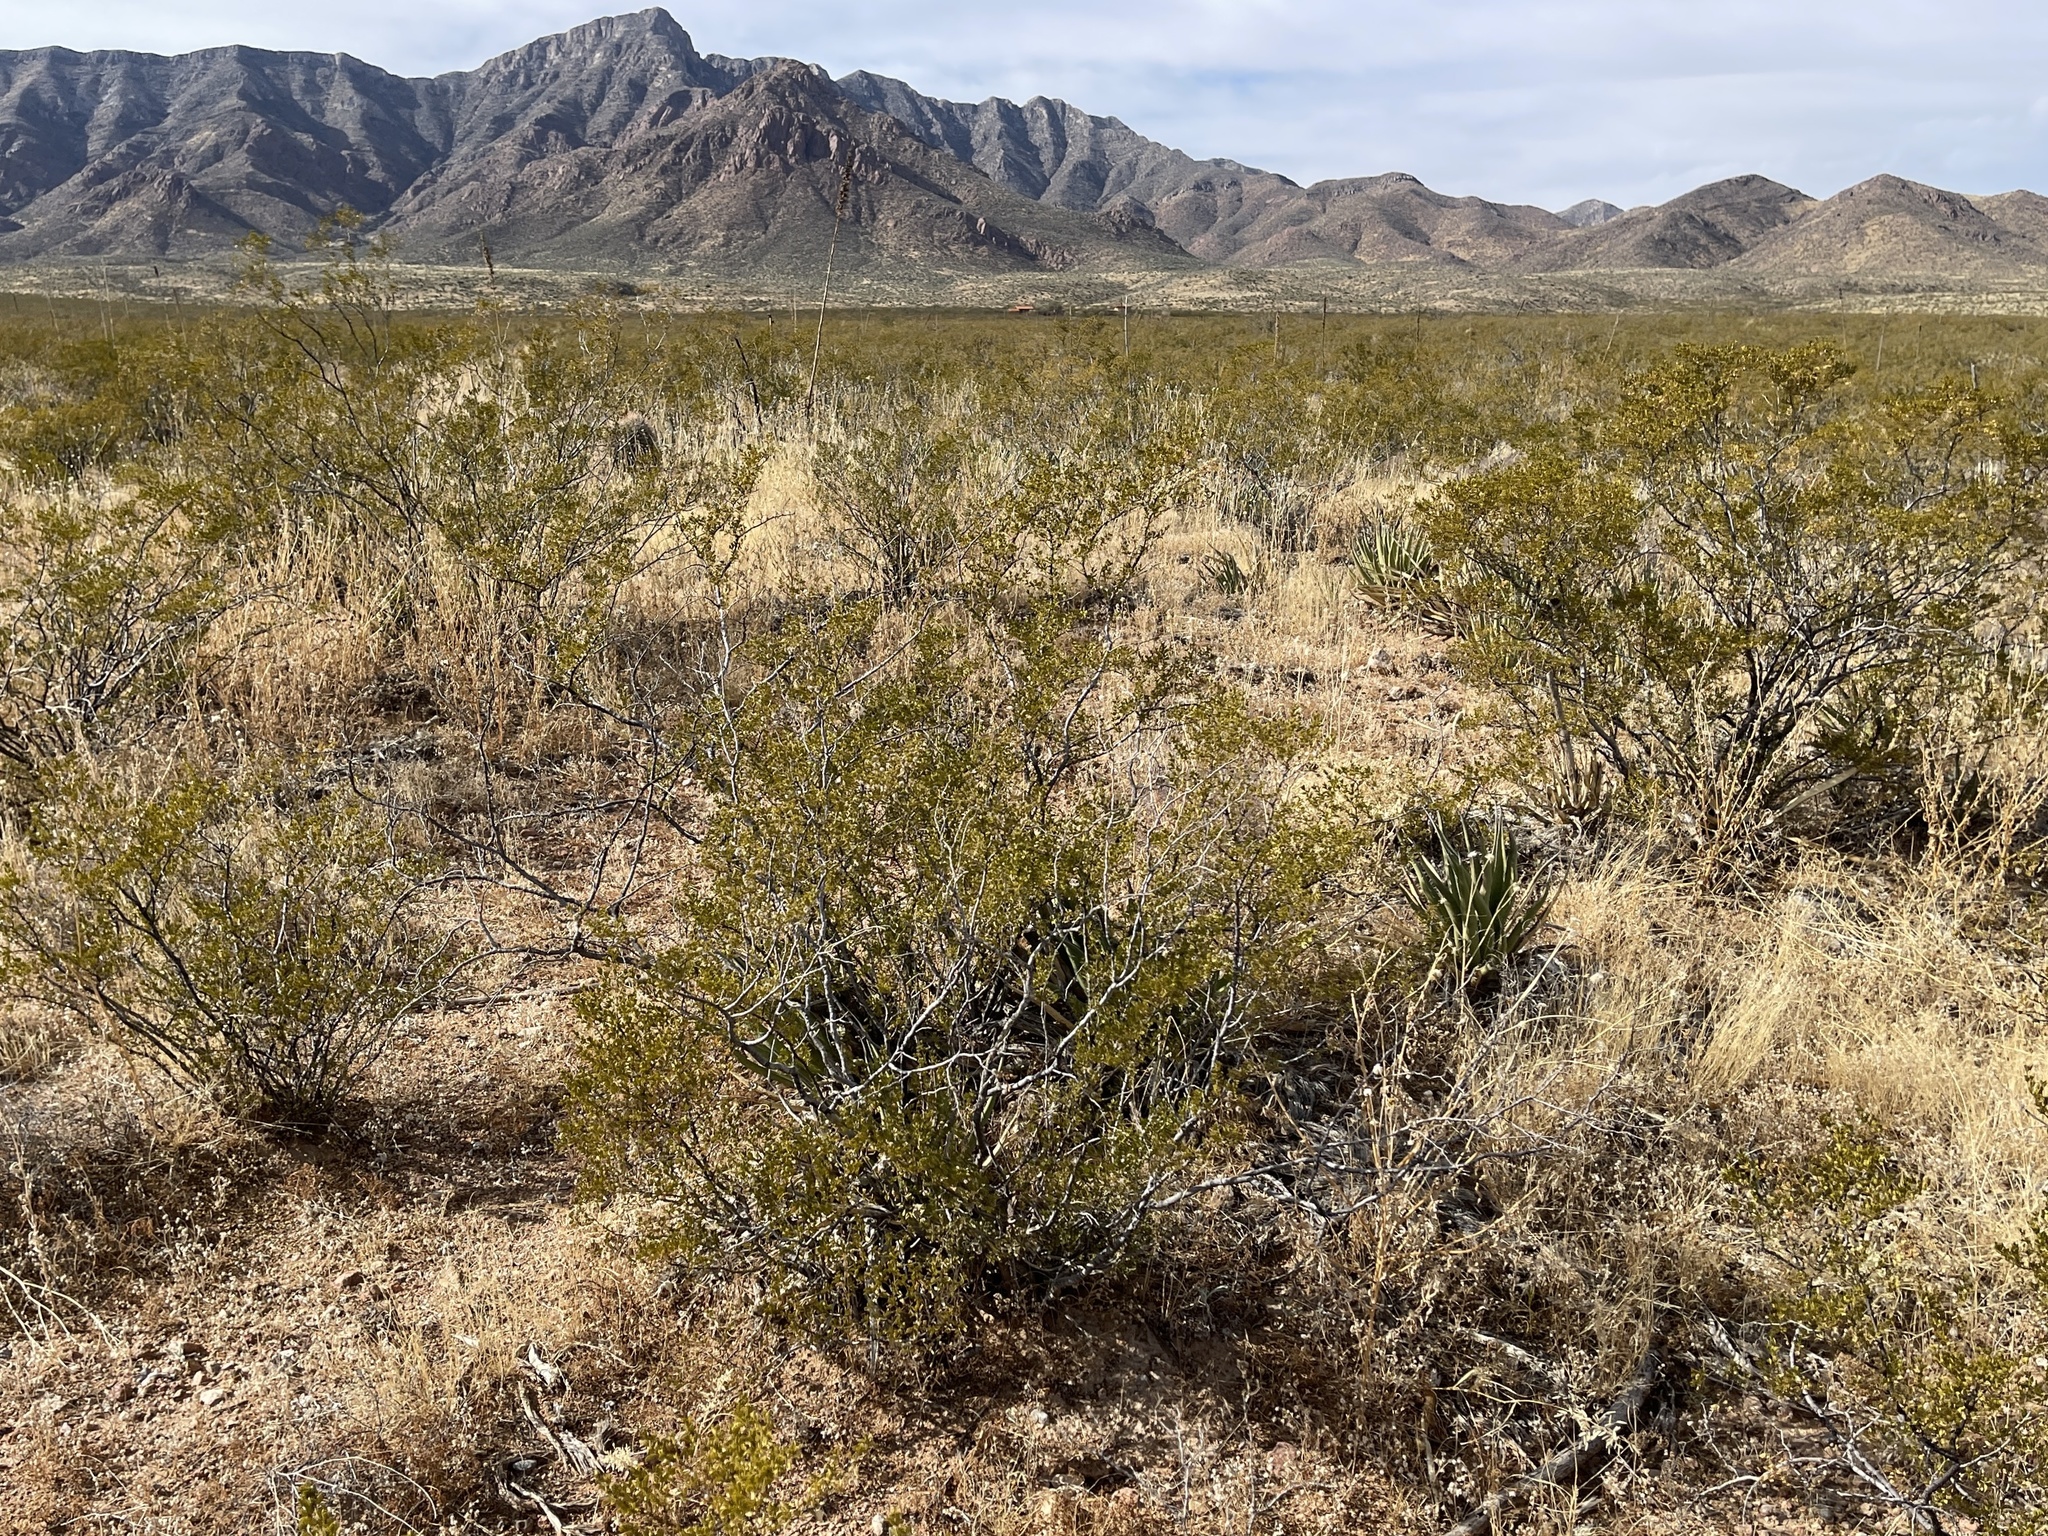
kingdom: Plantae
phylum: Tracheophyta
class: Magnoliopsida
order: Zygophyllales
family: Zygophyllaceae
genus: Larrea
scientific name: Larrea tridentata
